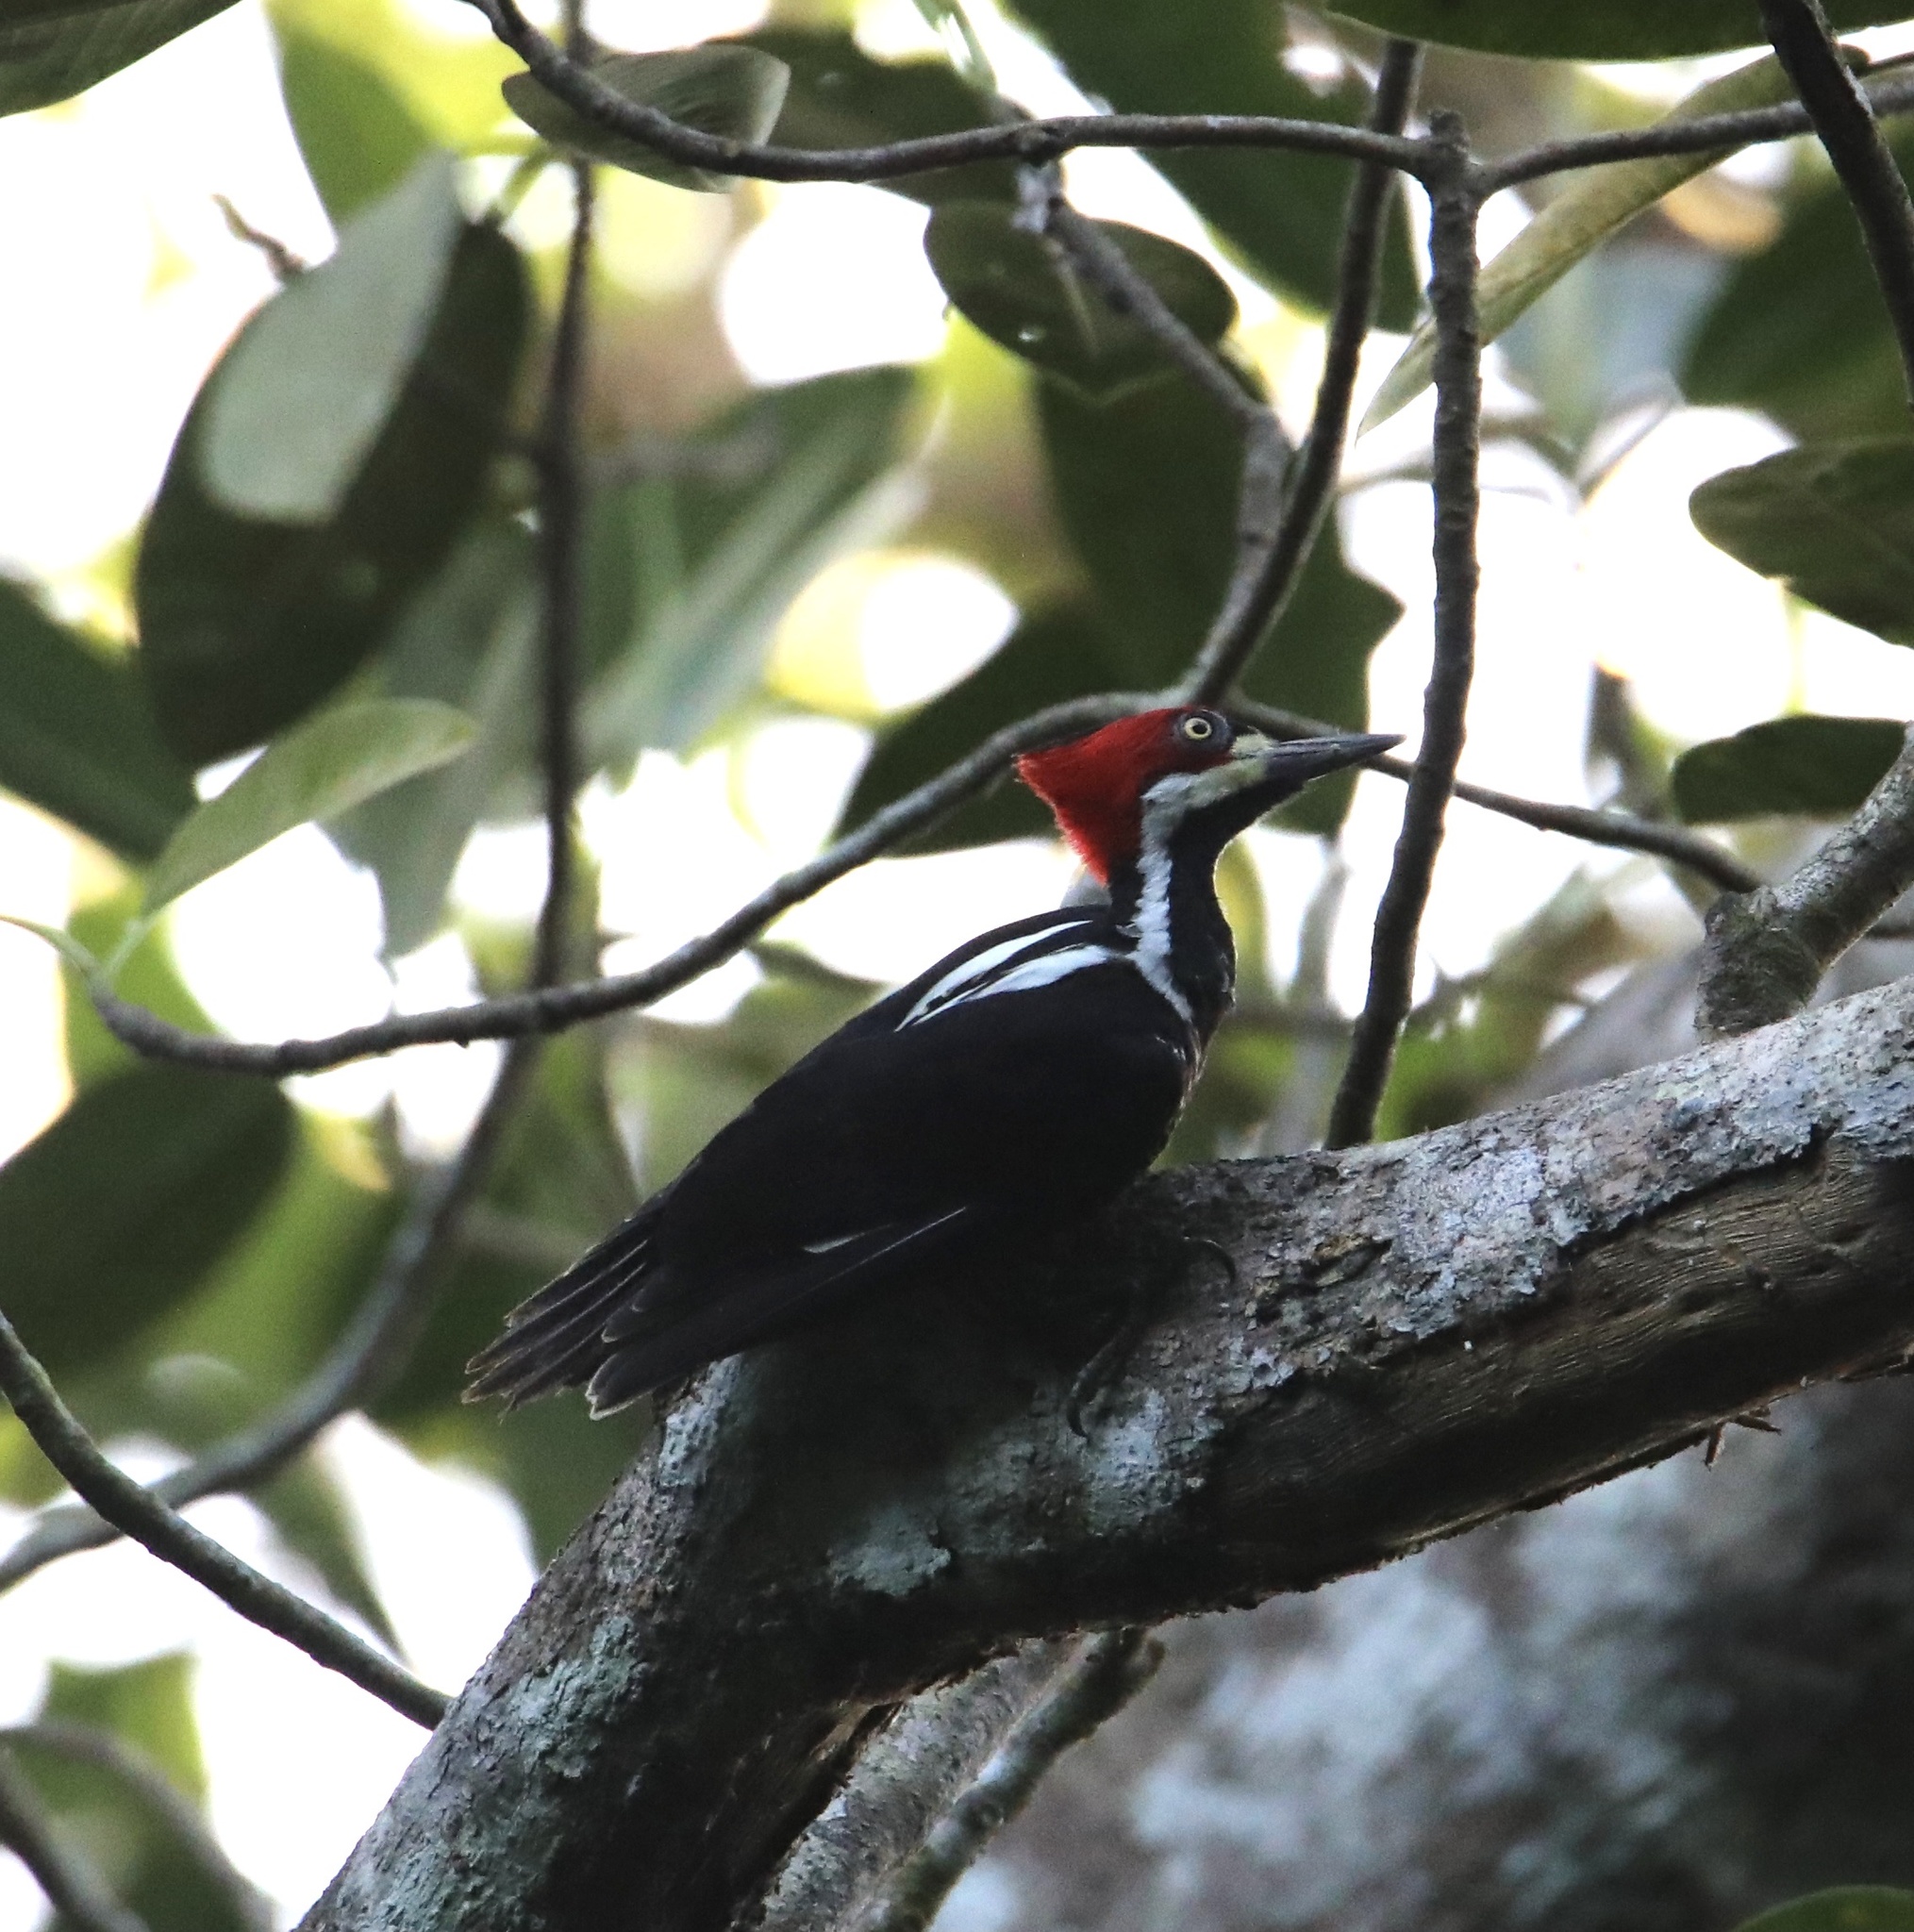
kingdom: Animalia
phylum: Chordata
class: Aves
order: Piciformes
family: Picidae
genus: Campephilus
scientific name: Campephilus melanoleucos
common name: Crimson-crested woodpecker
